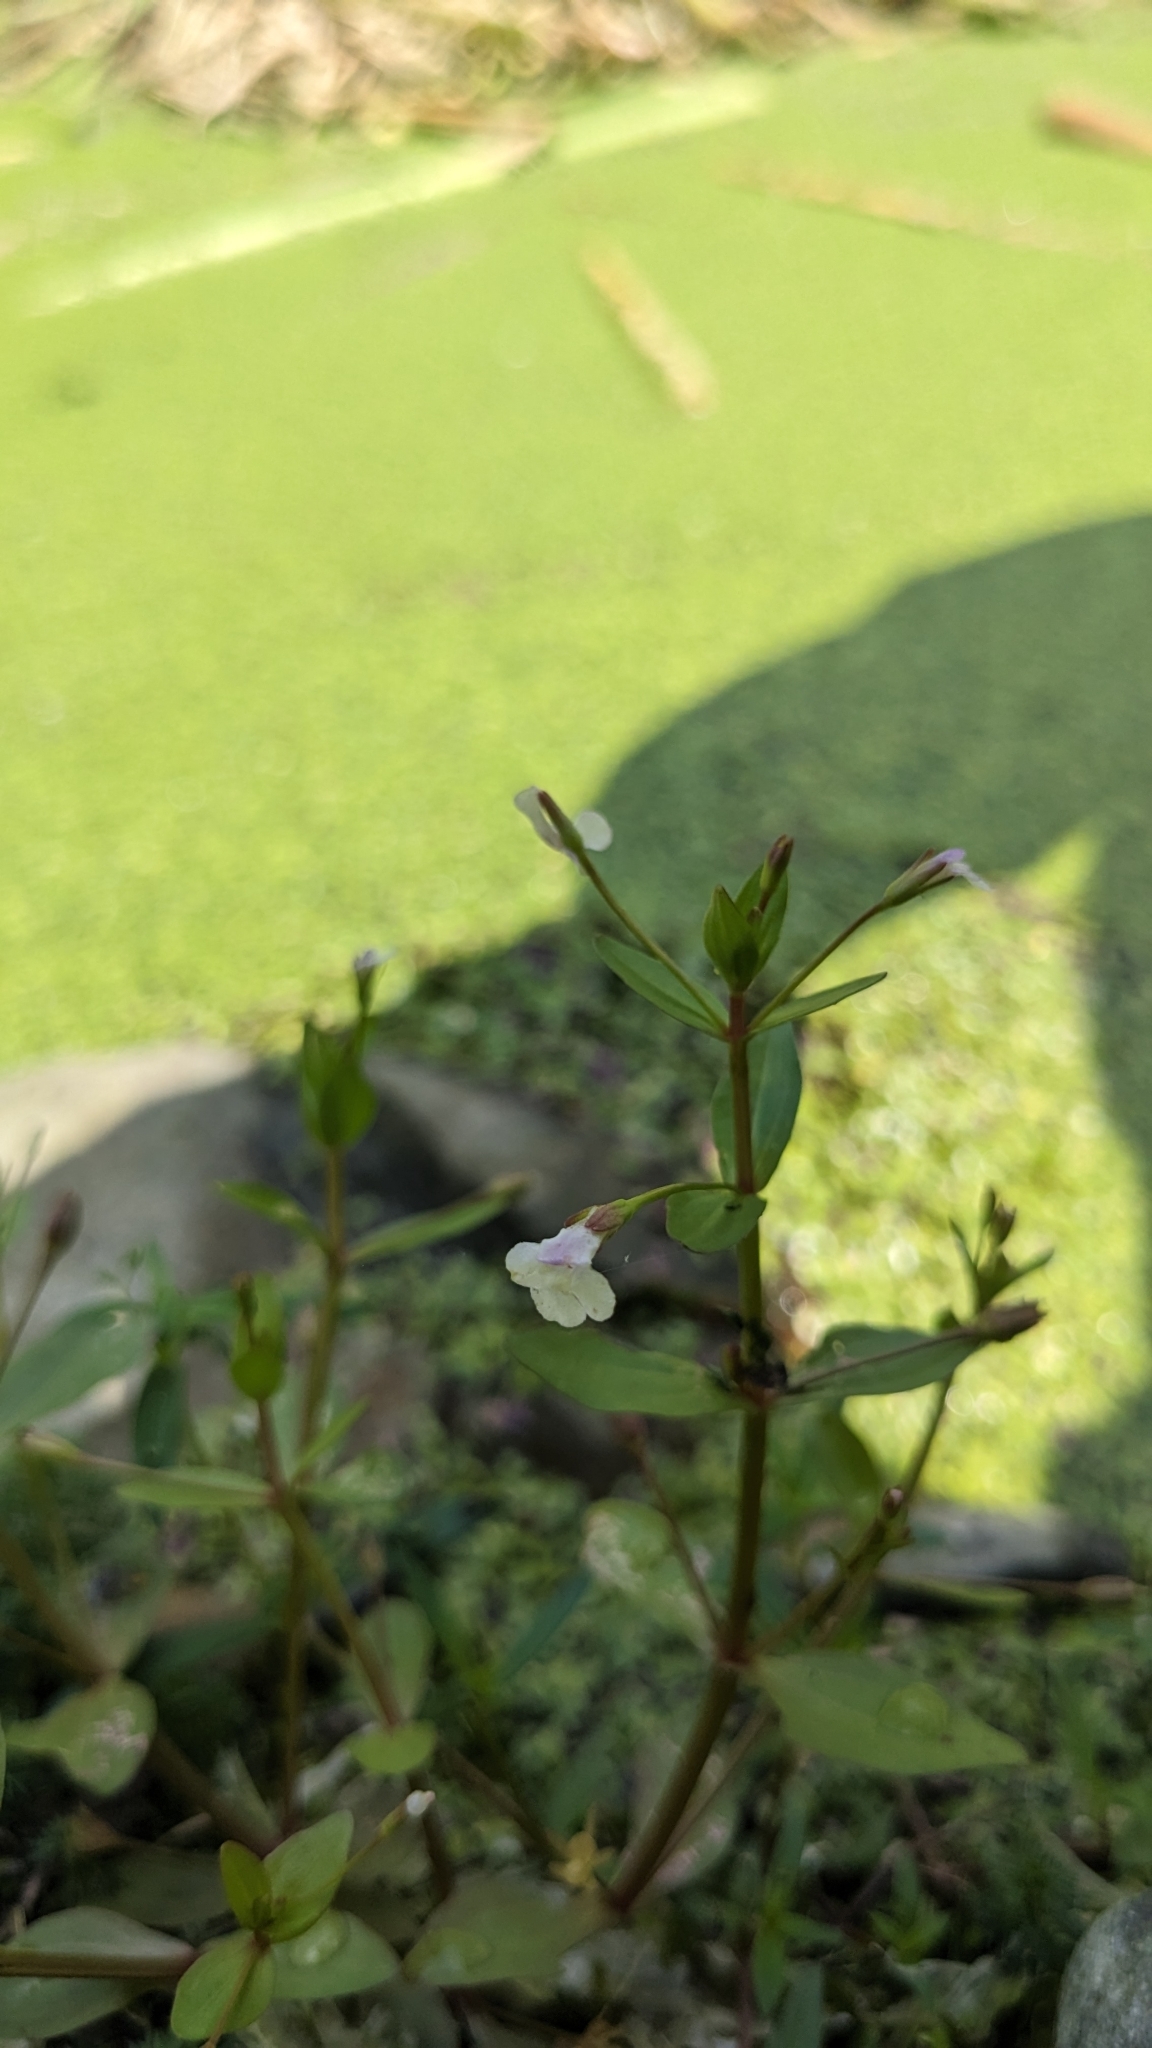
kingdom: Plantae
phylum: Tracheophyta
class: Magnoliopsida
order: Lamiales
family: Linderniaceae
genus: Lindernia
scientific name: Lindernia procumbens
